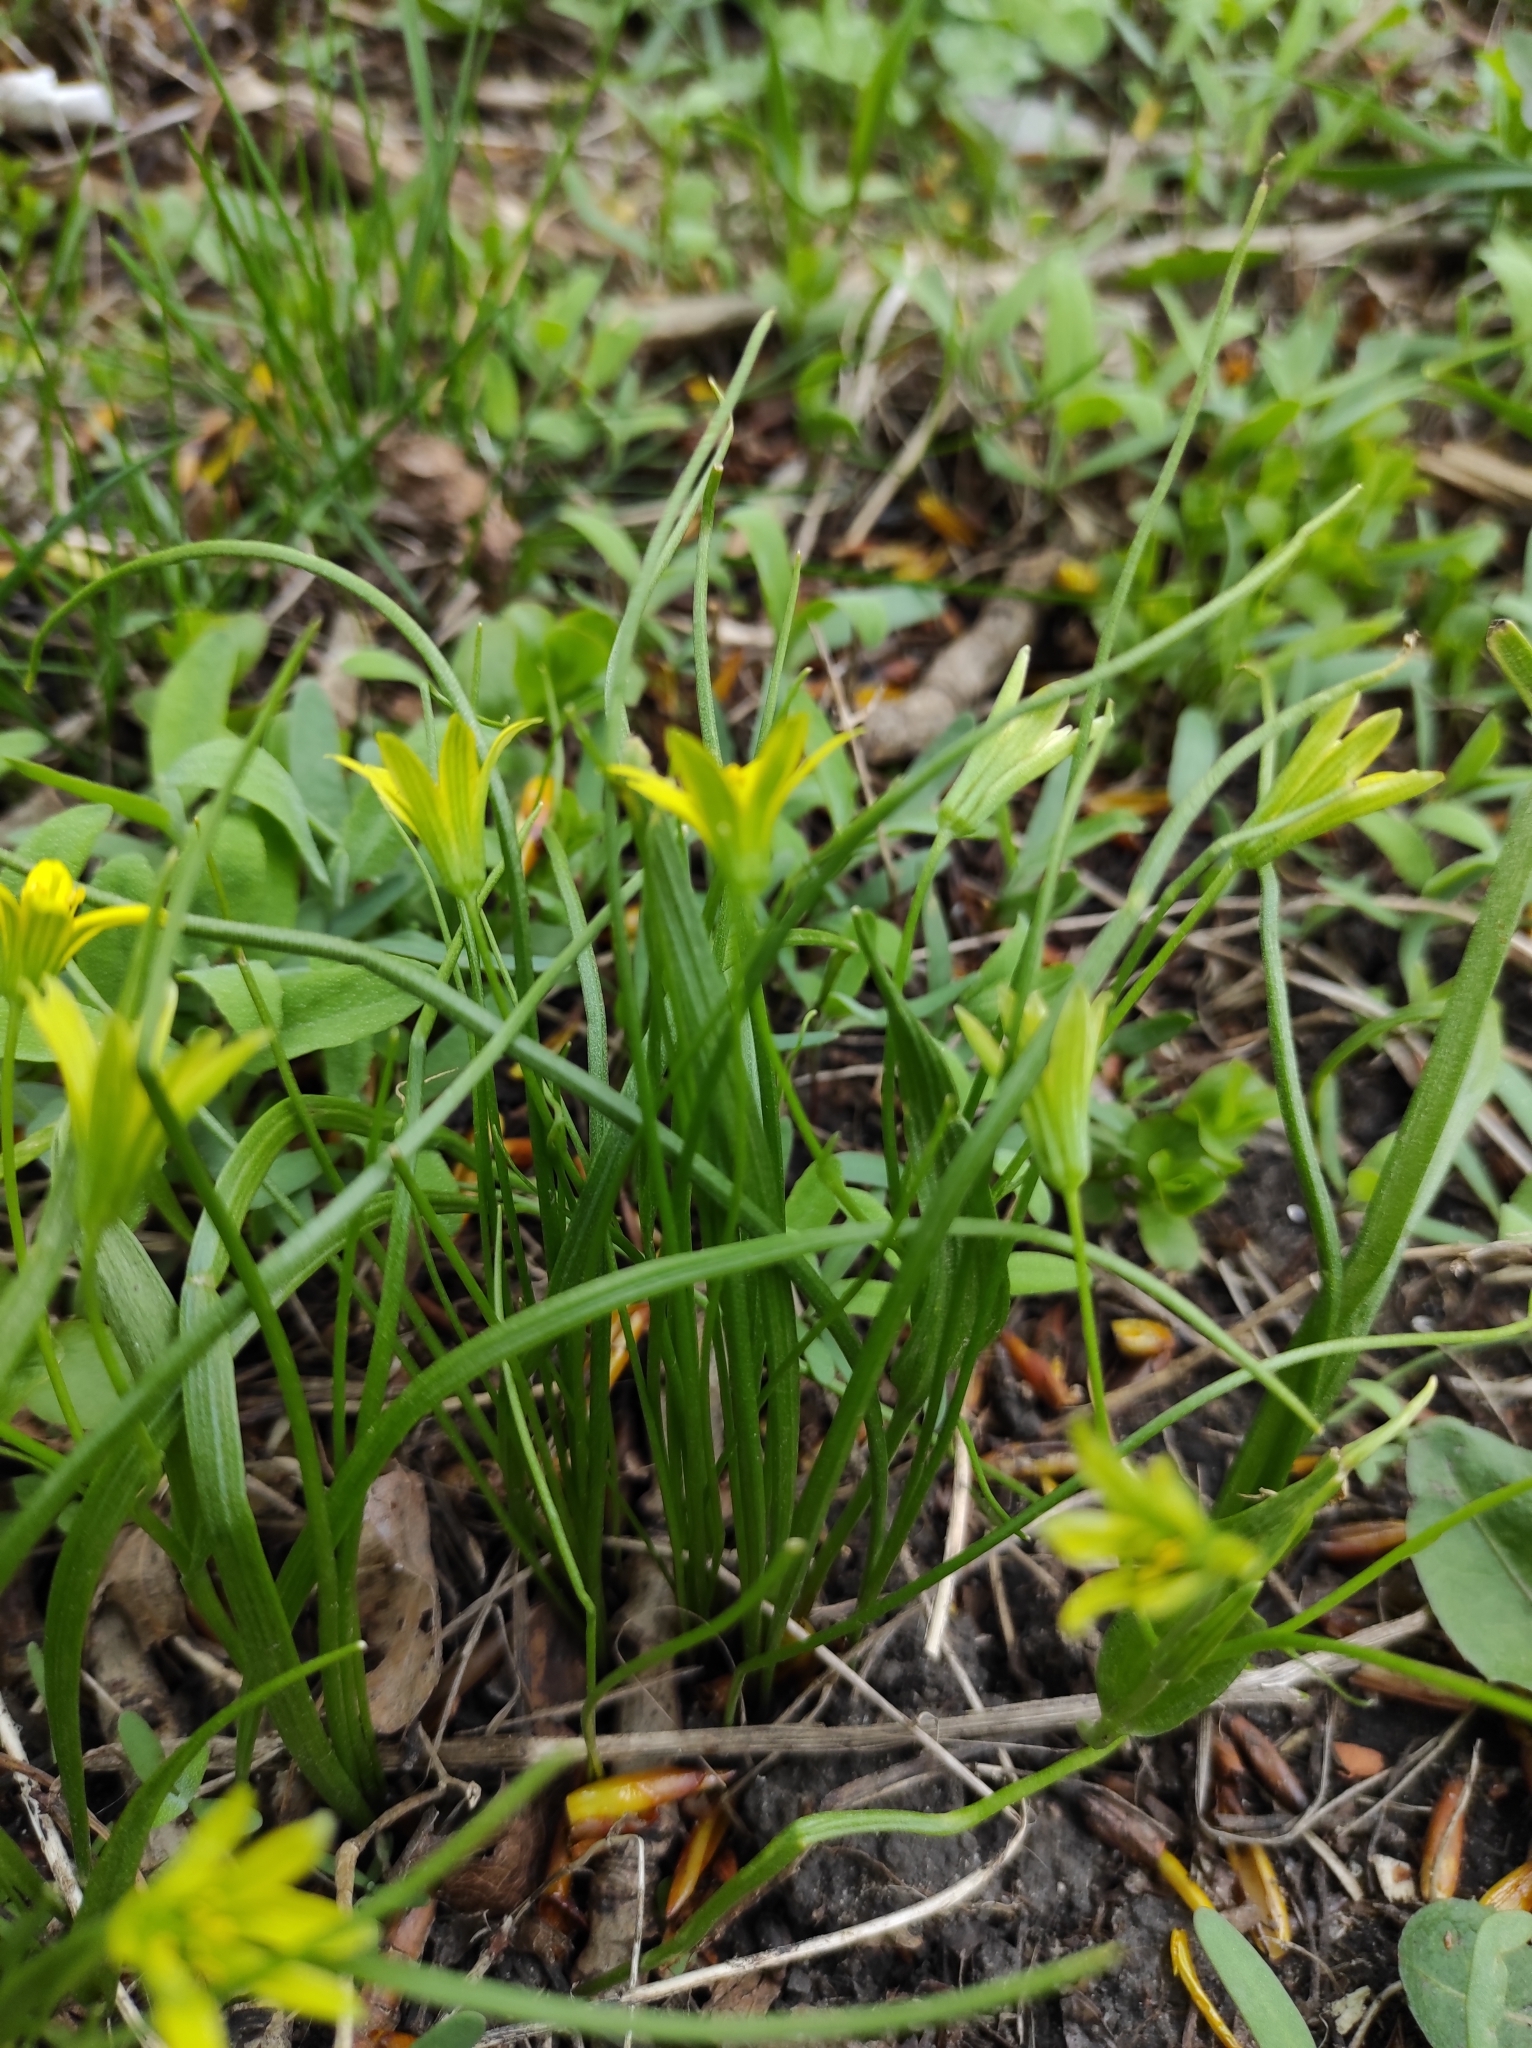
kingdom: Plantae
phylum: Tracheophyta
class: Liliopsida
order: Liliales
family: Liliaceae
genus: Gagea
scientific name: Gagea minima
